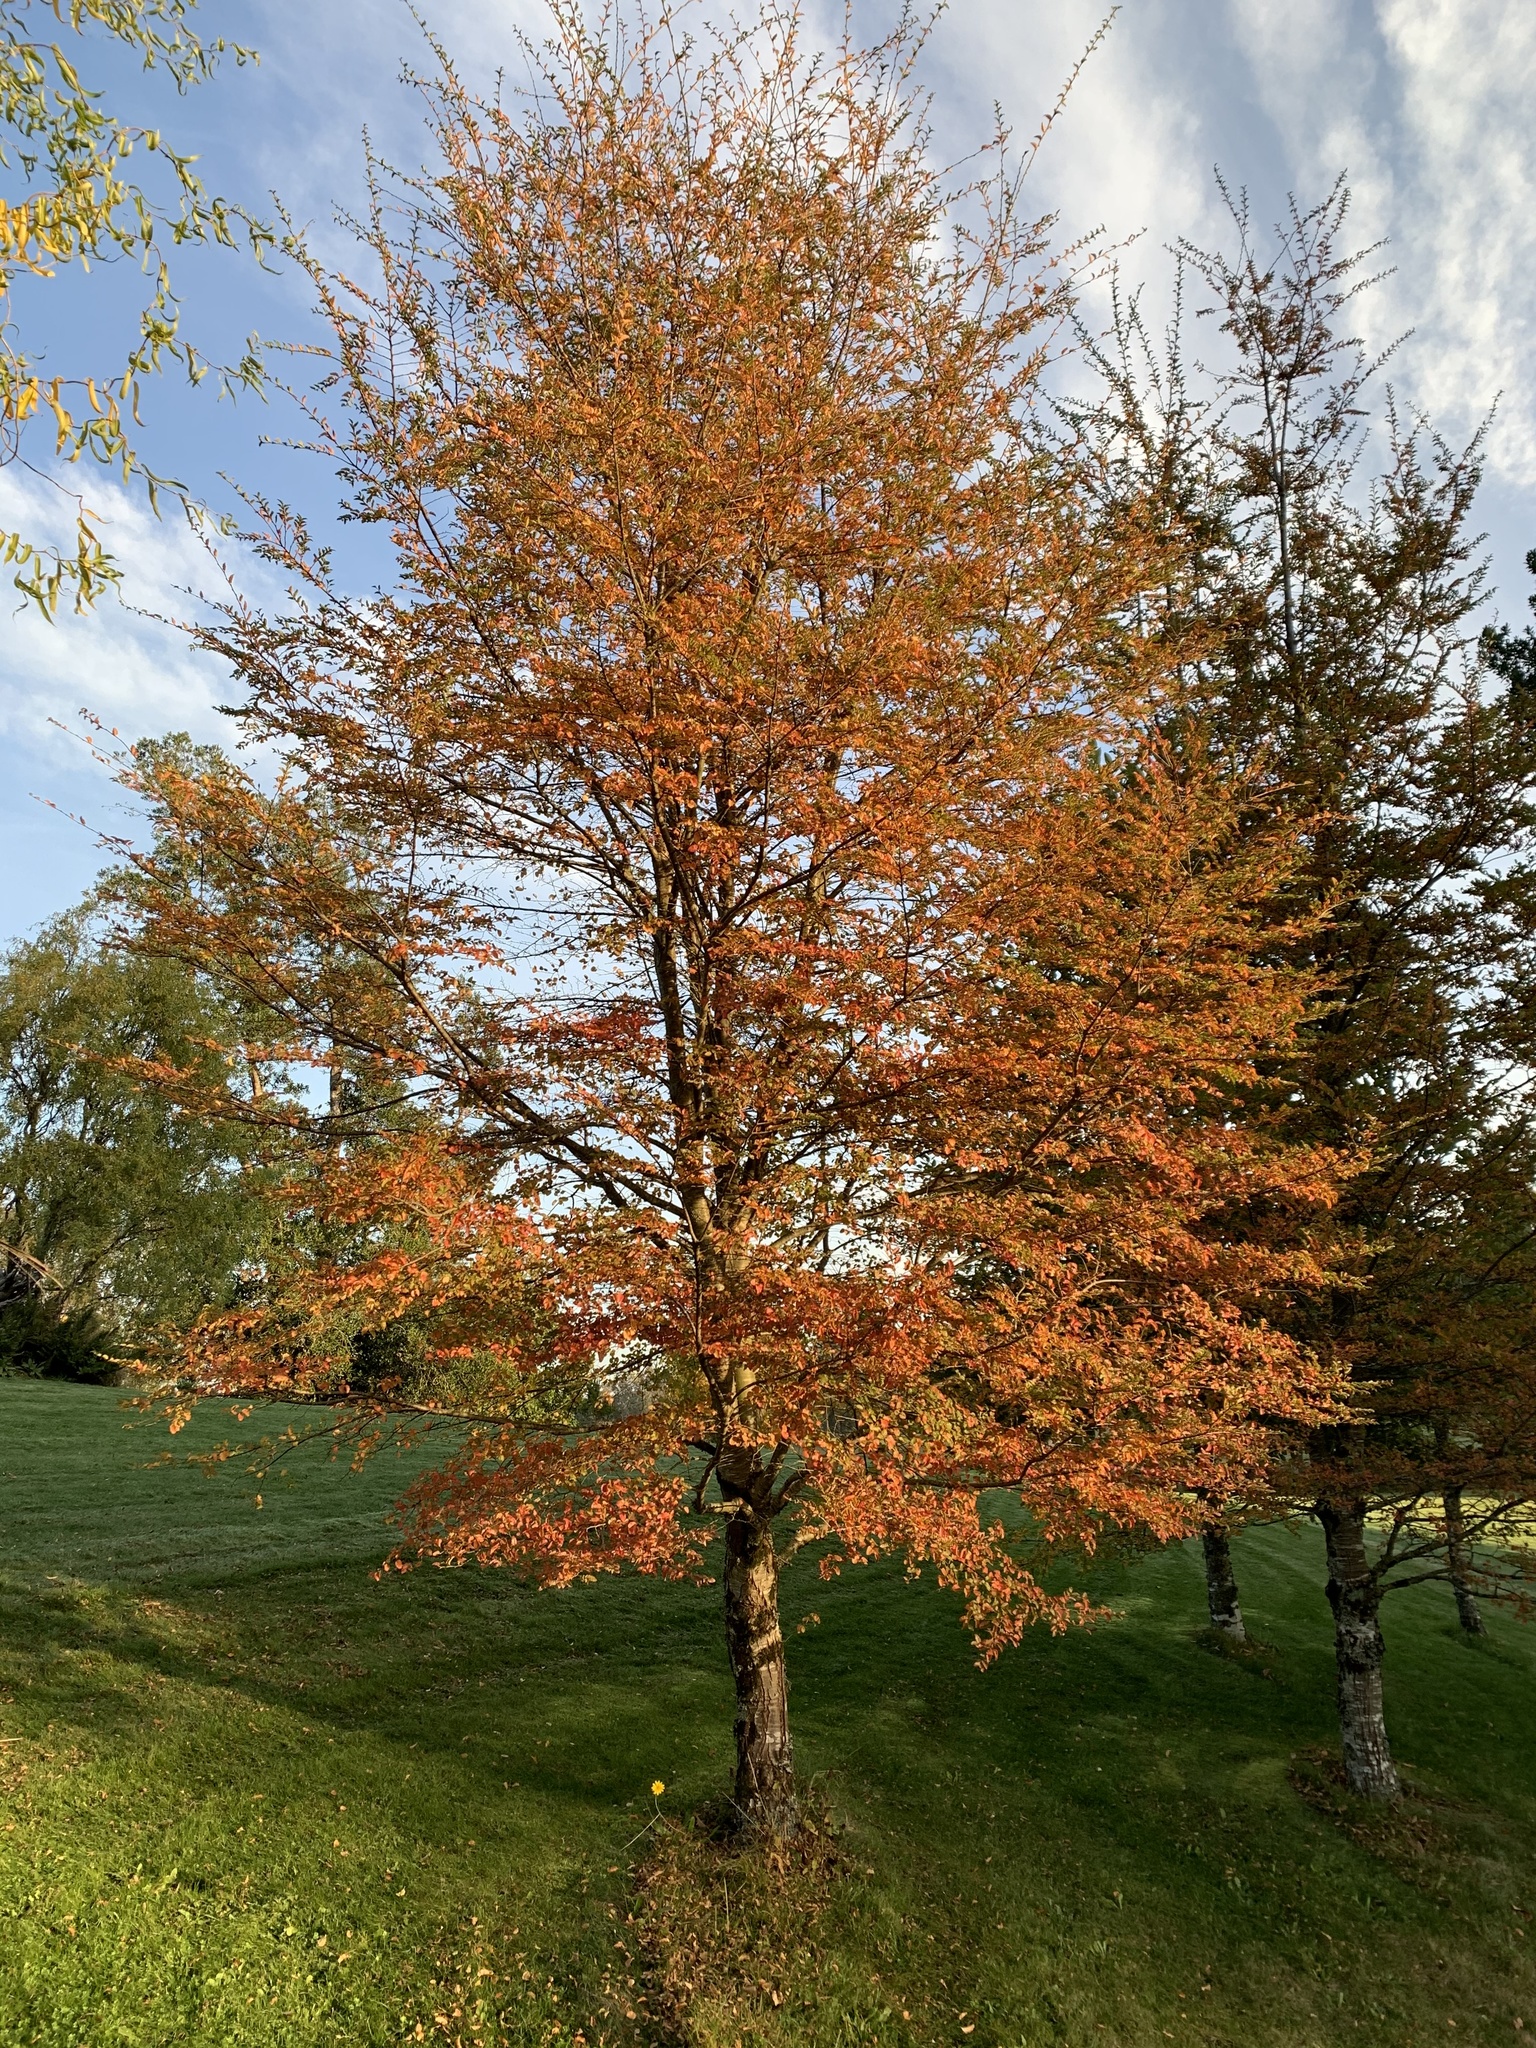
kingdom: Plantae
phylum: Tracheophyta
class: Magnoliopsida
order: Fagales
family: Nothofagaceae
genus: Nothofagus
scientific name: Nothofagus antarctica
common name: Antarctic beech
